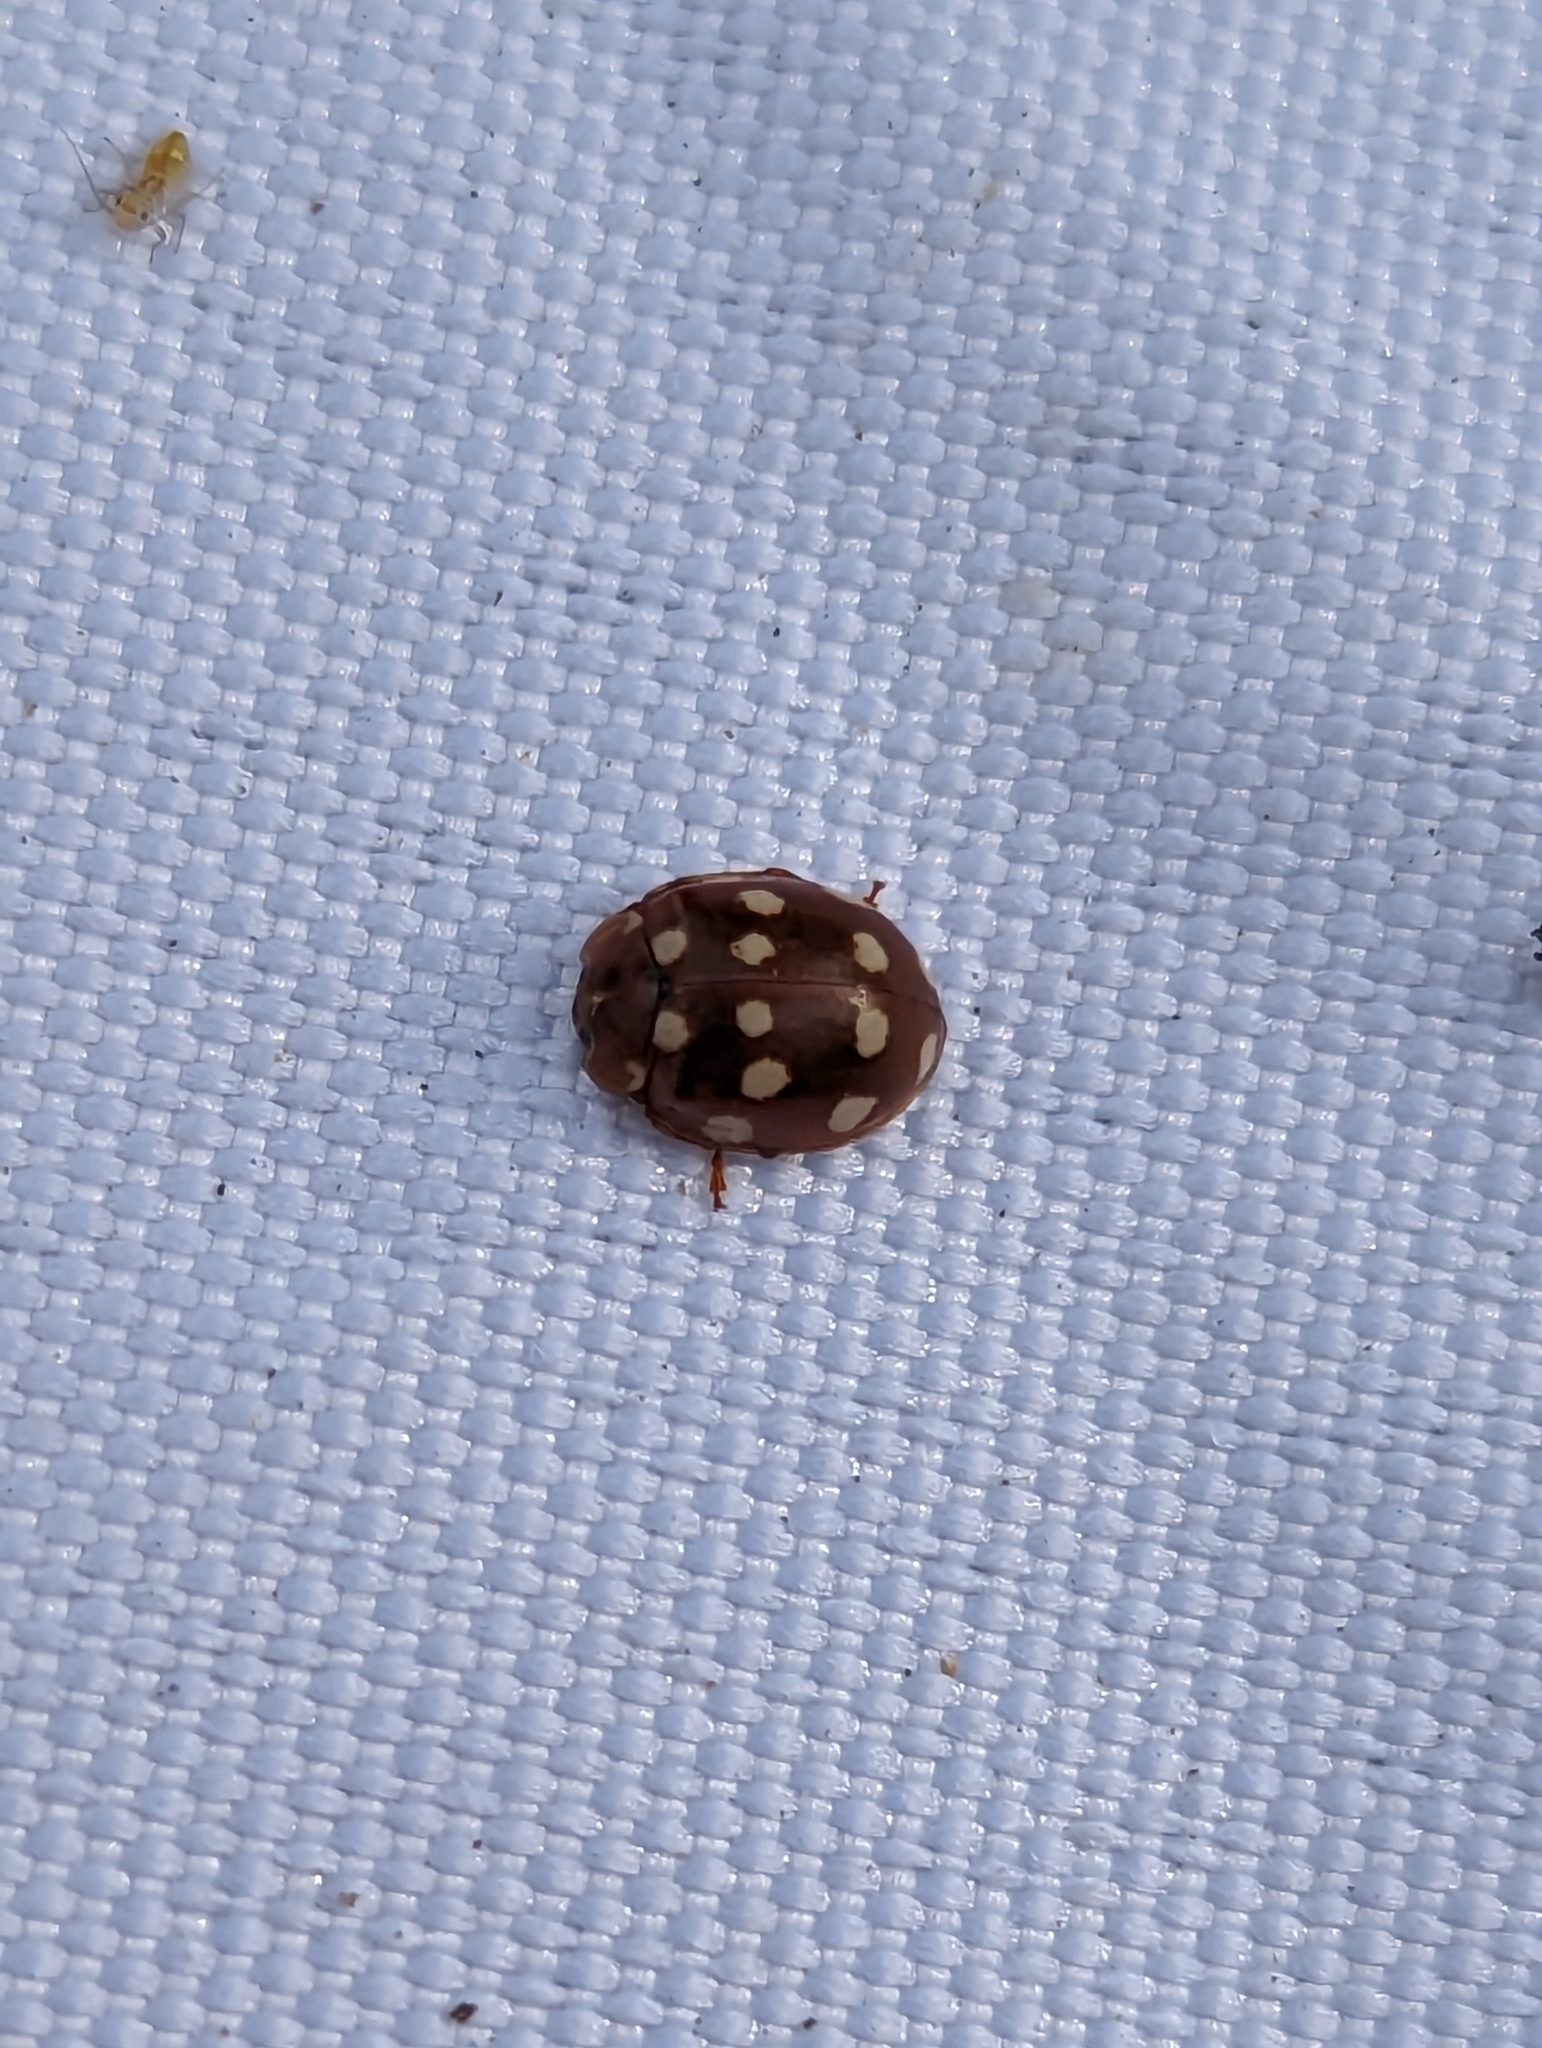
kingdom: Animalia
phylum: Arthropoda
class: Insecta
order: Coleoptera
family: Coccinellidae
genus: Calvia
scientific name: Calvia quatuordecimguttata
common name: Cream-spot ladybird
